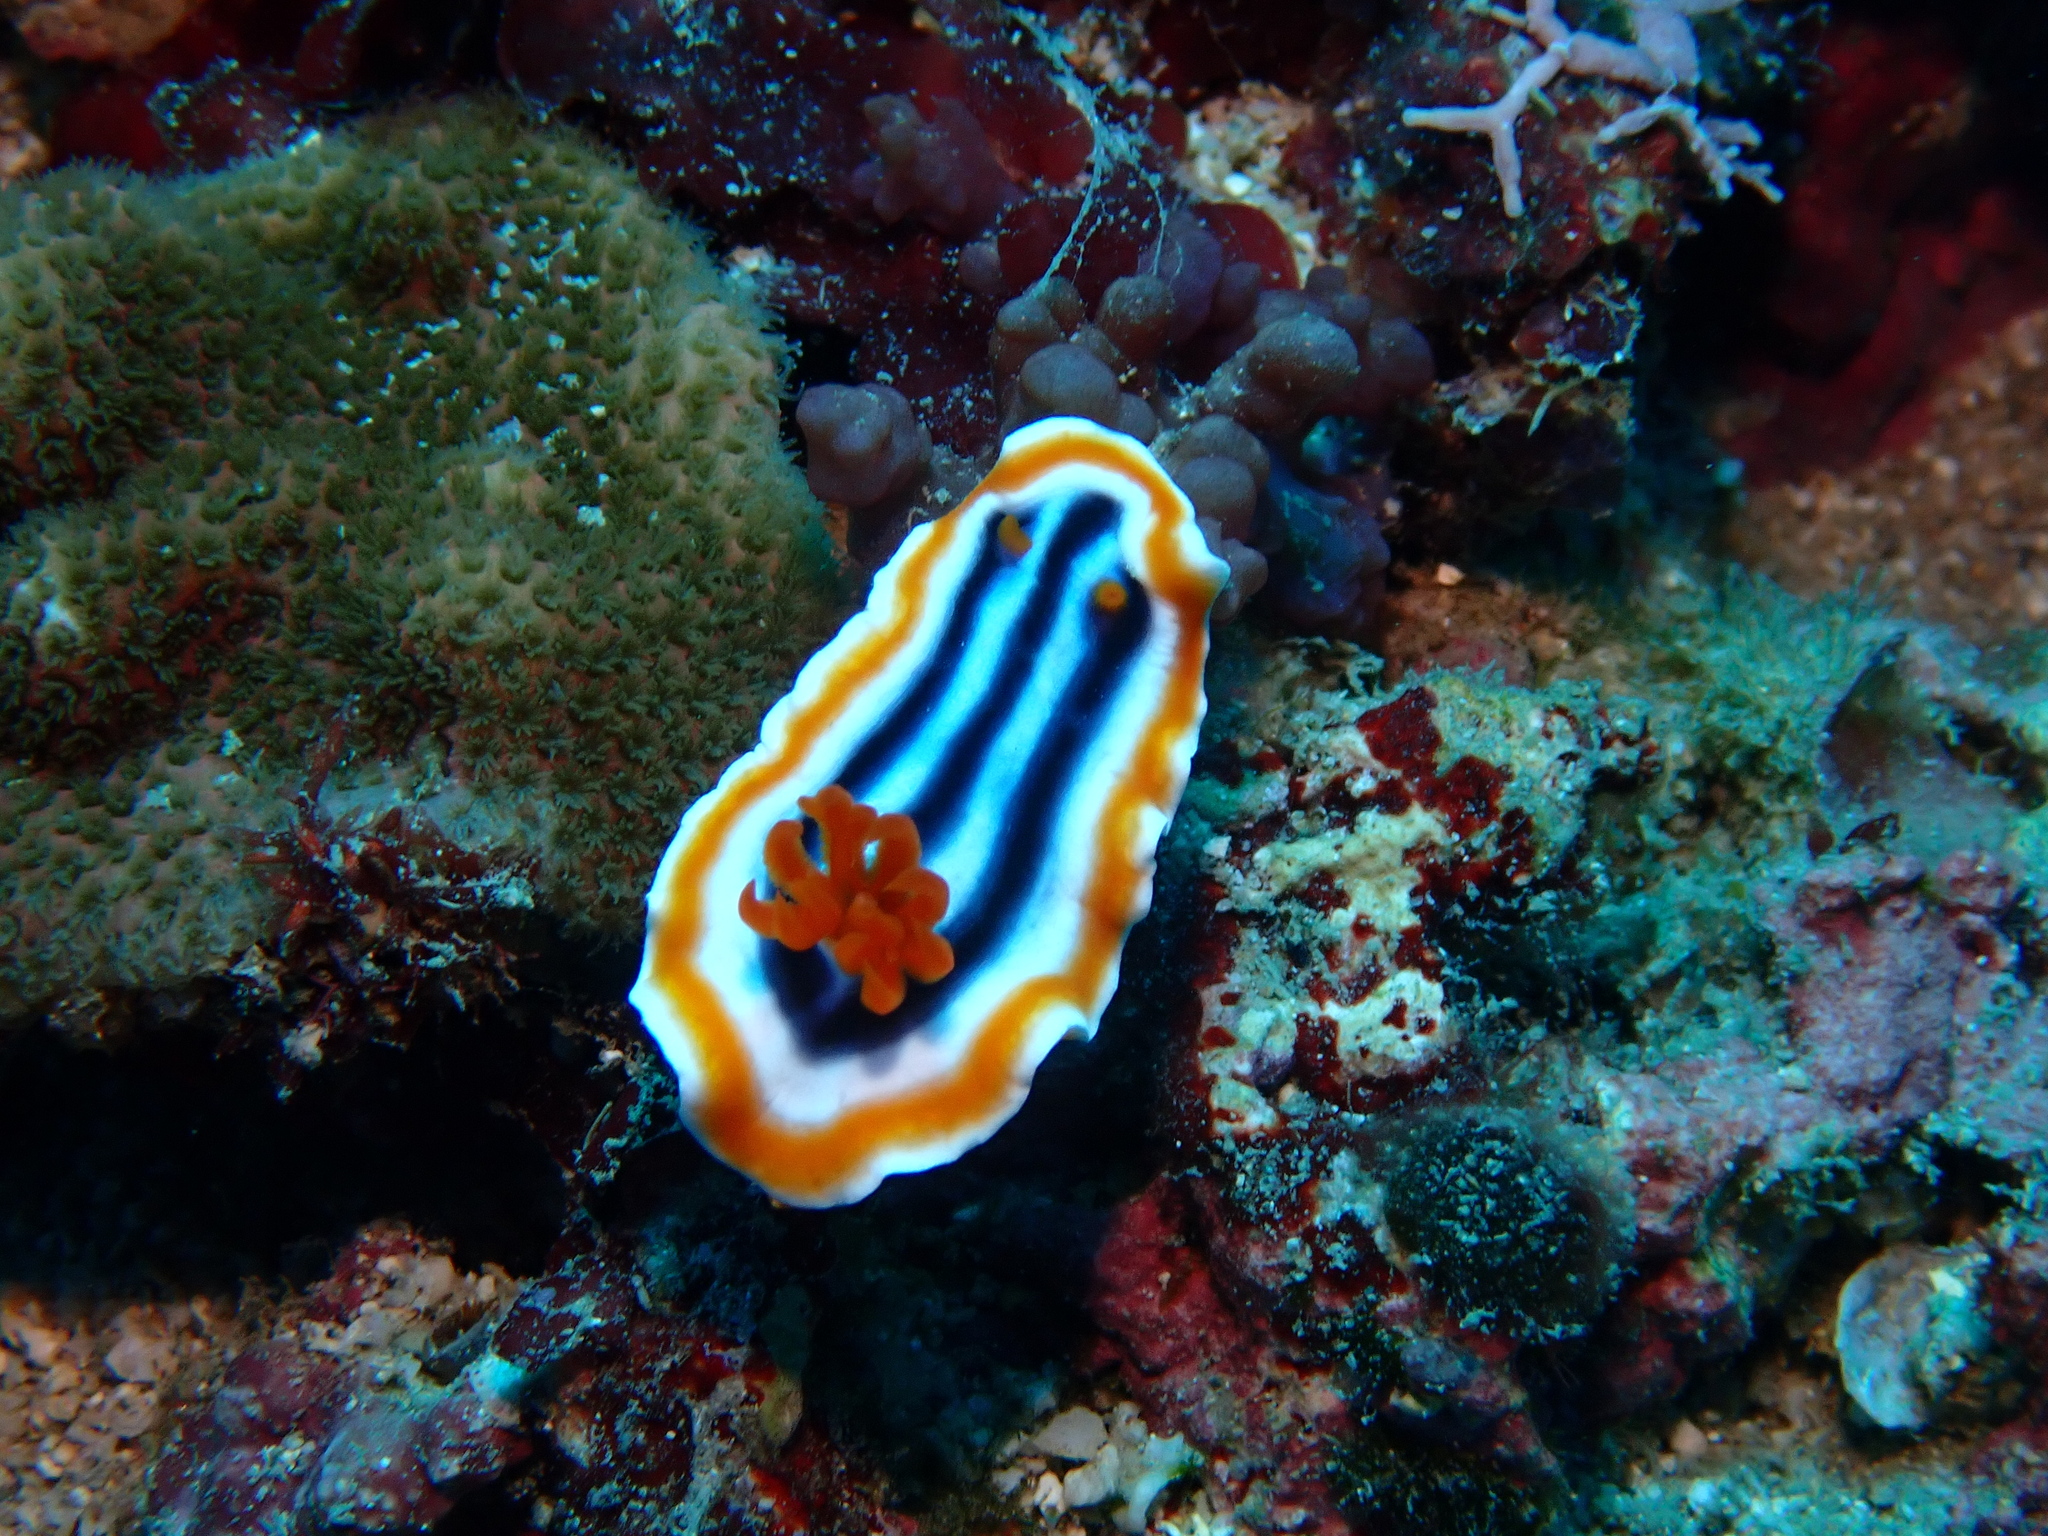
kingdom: Animalia
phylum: Mollusca
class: Gastropoda
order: Nudibranchia
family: Chromodorididae
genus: Chromodoris
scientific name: Chromodoris magnifica
